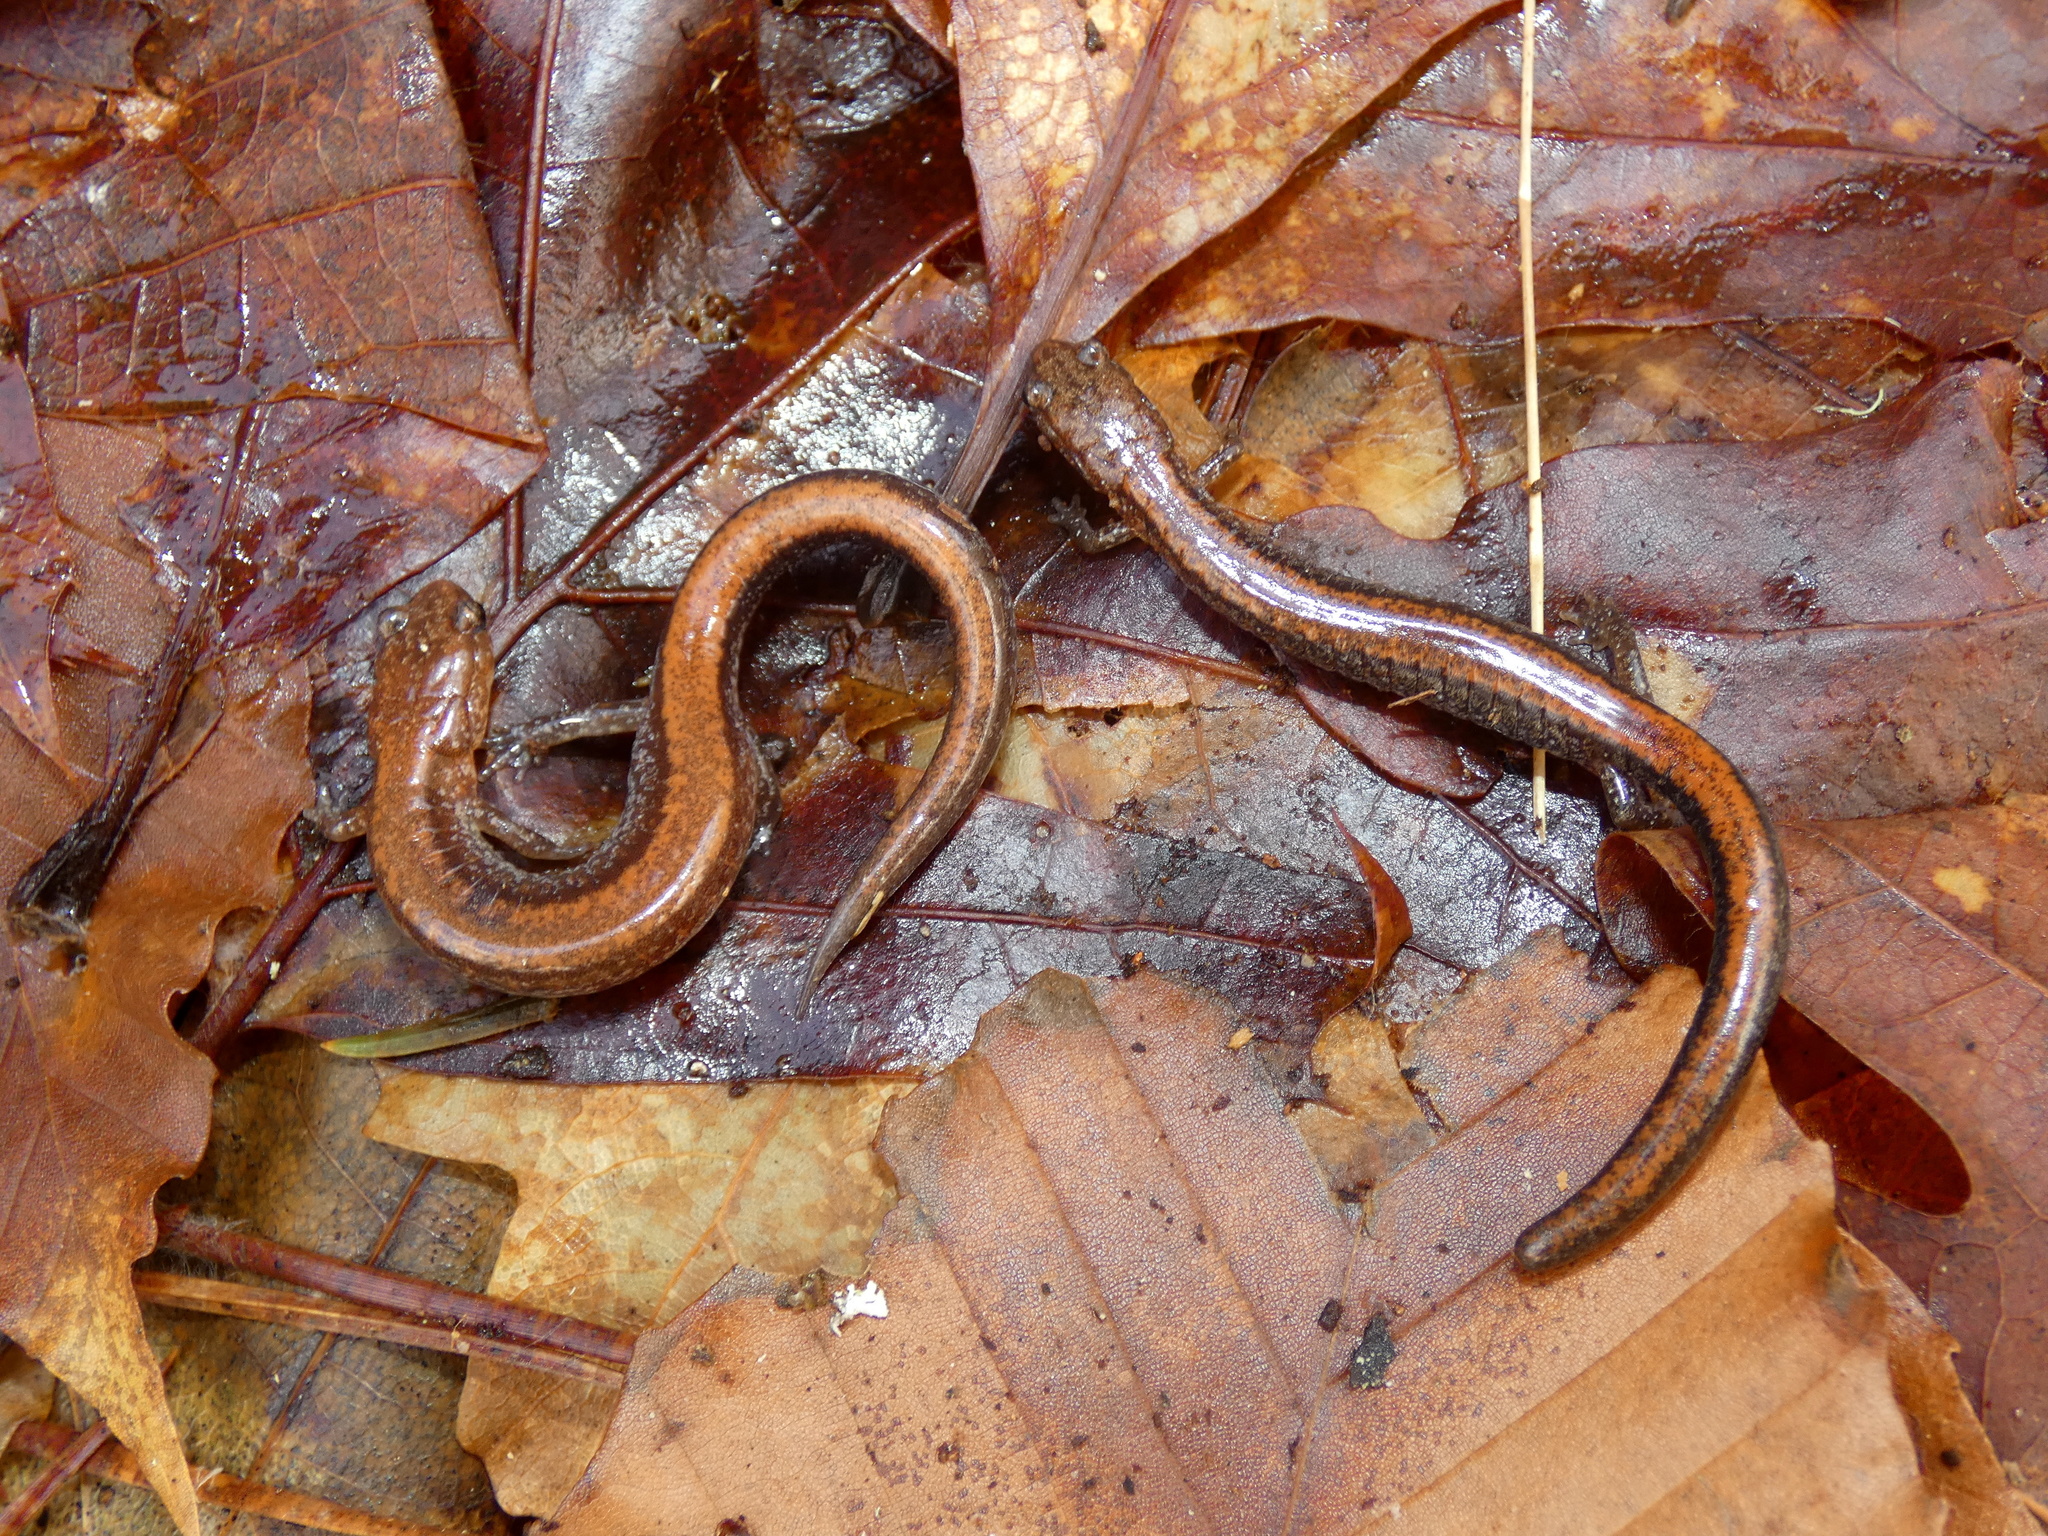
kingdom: Animalia
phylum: Chordata
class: Amphibia
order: Caudata
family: Plethodontidae
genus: Plethodon
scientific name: Plethodon cinereus
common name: Redback salamander
